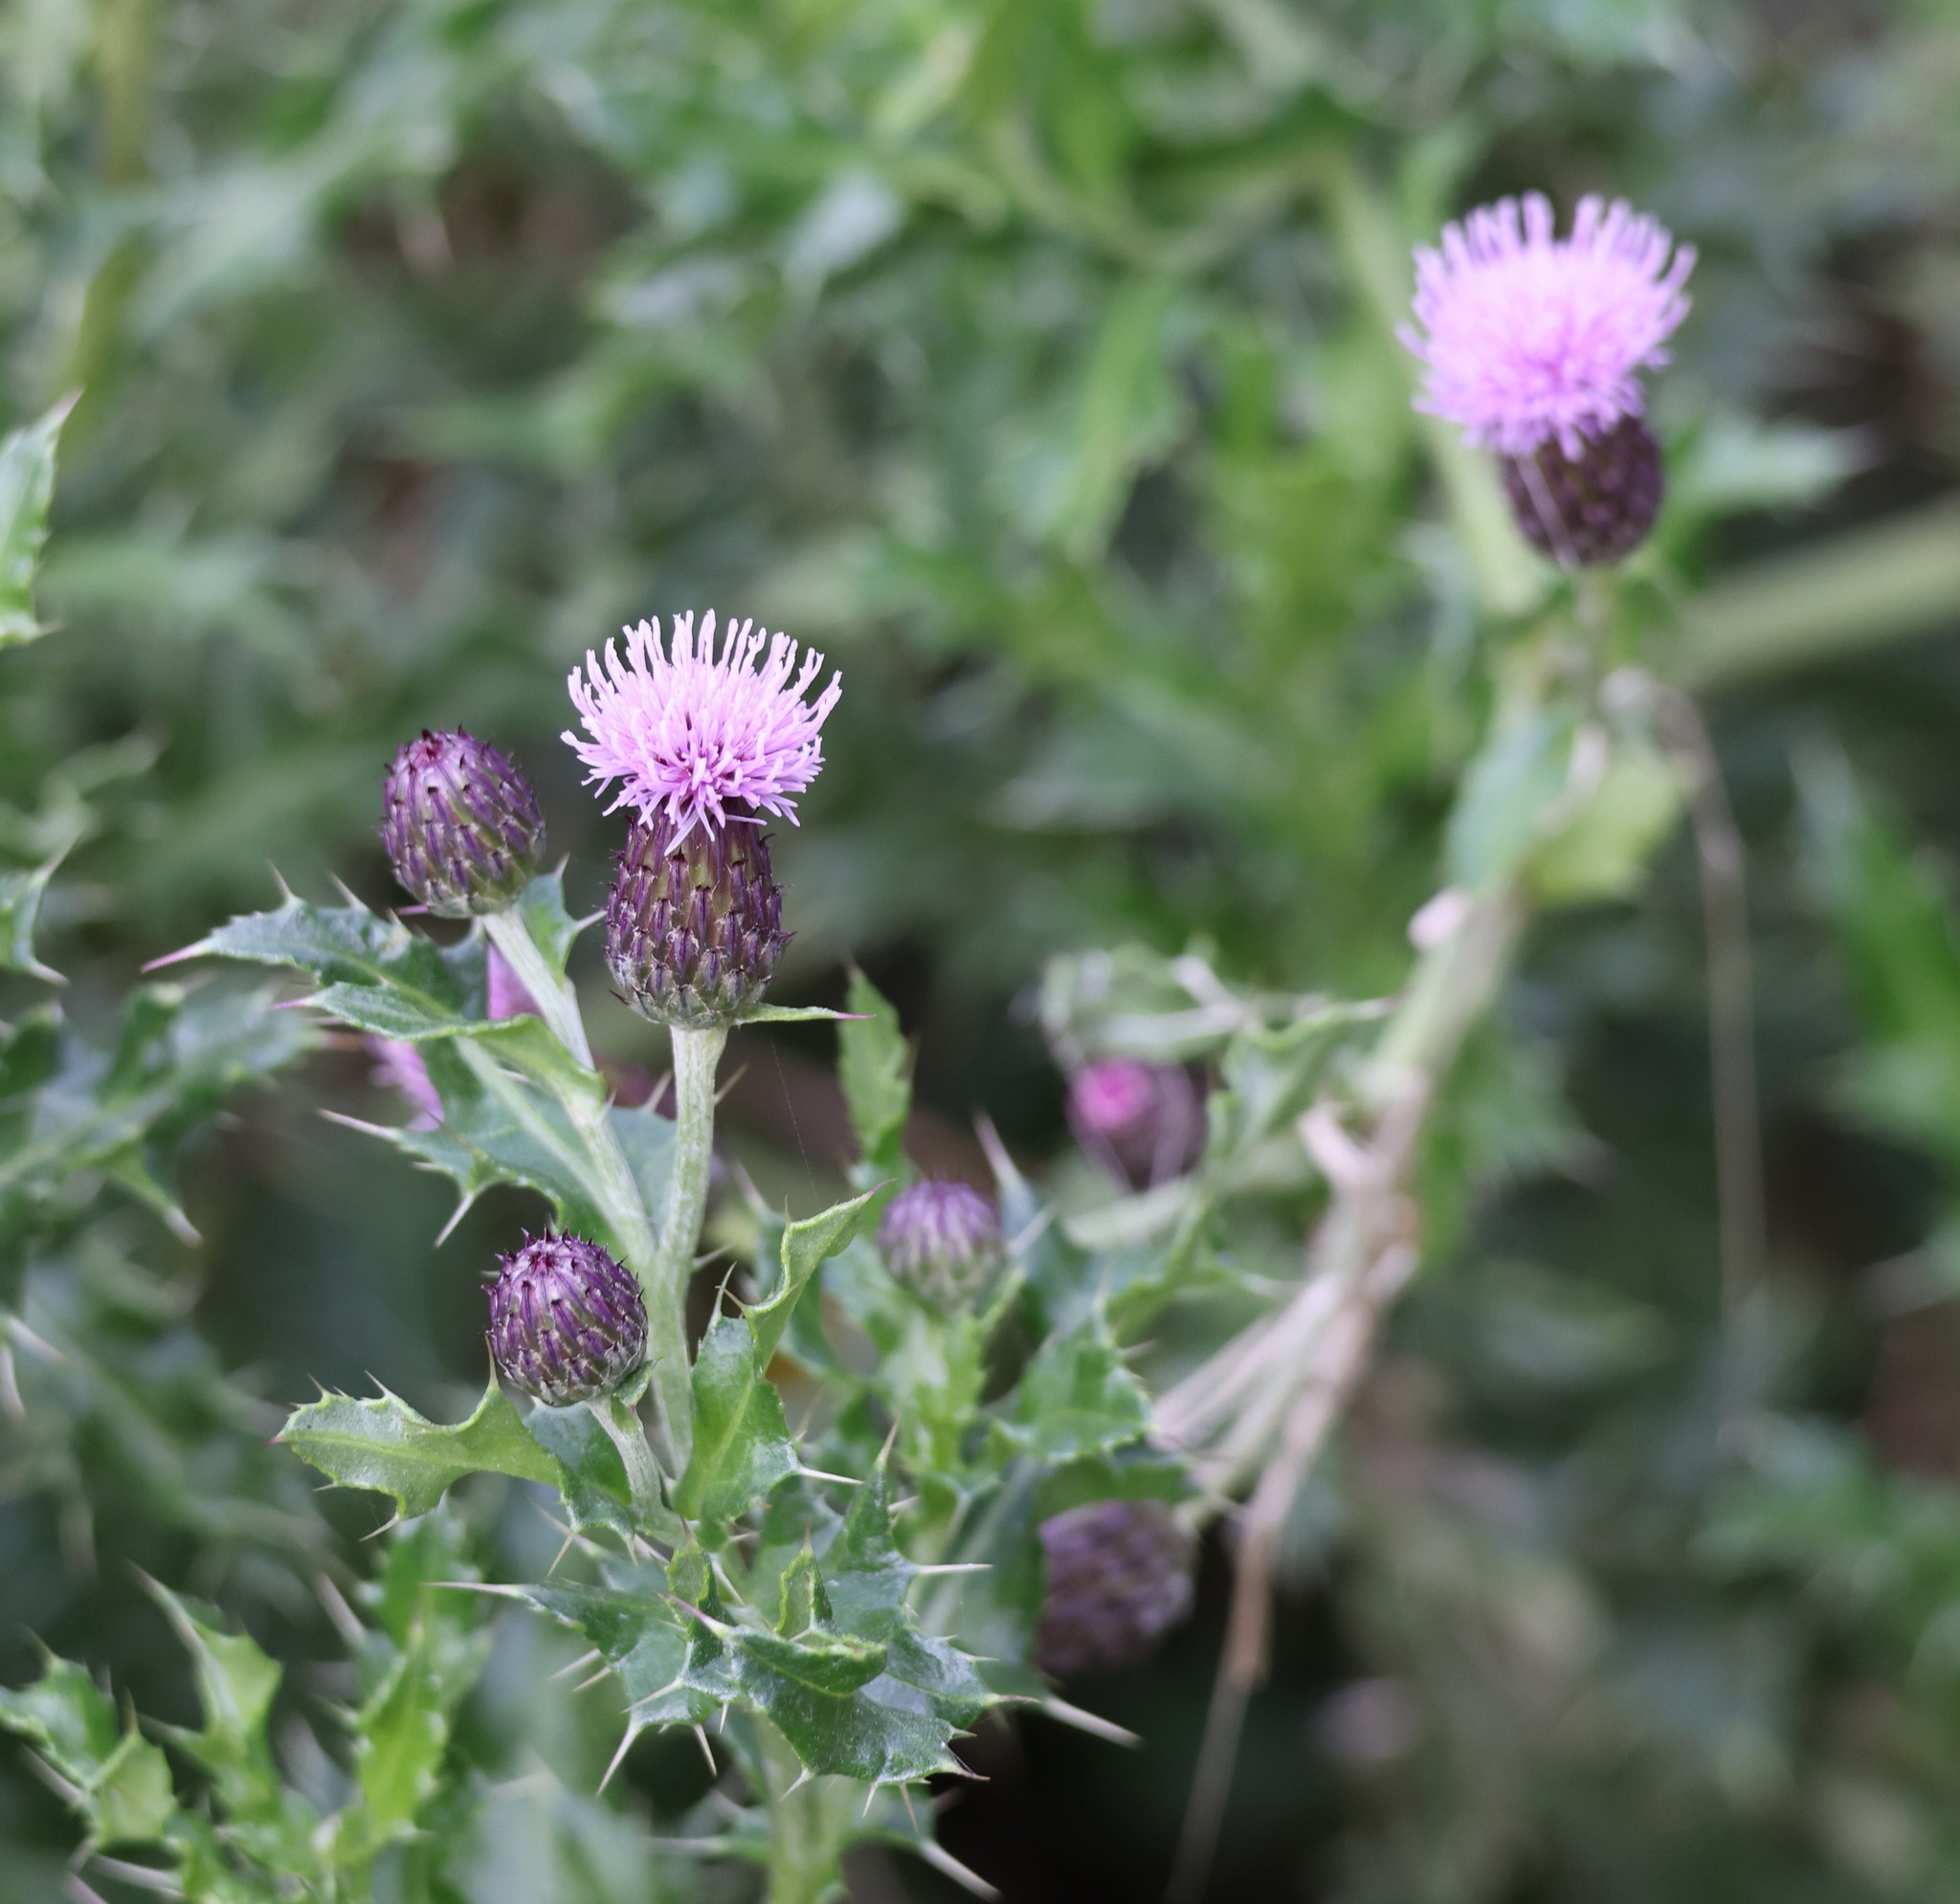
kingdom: Plantae
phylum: Tracheophyta
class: Magnoliopsida
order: Asterales
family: Asteraceae
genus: Cirsium
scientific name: Cirsium arvense
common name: Creeping thistle
